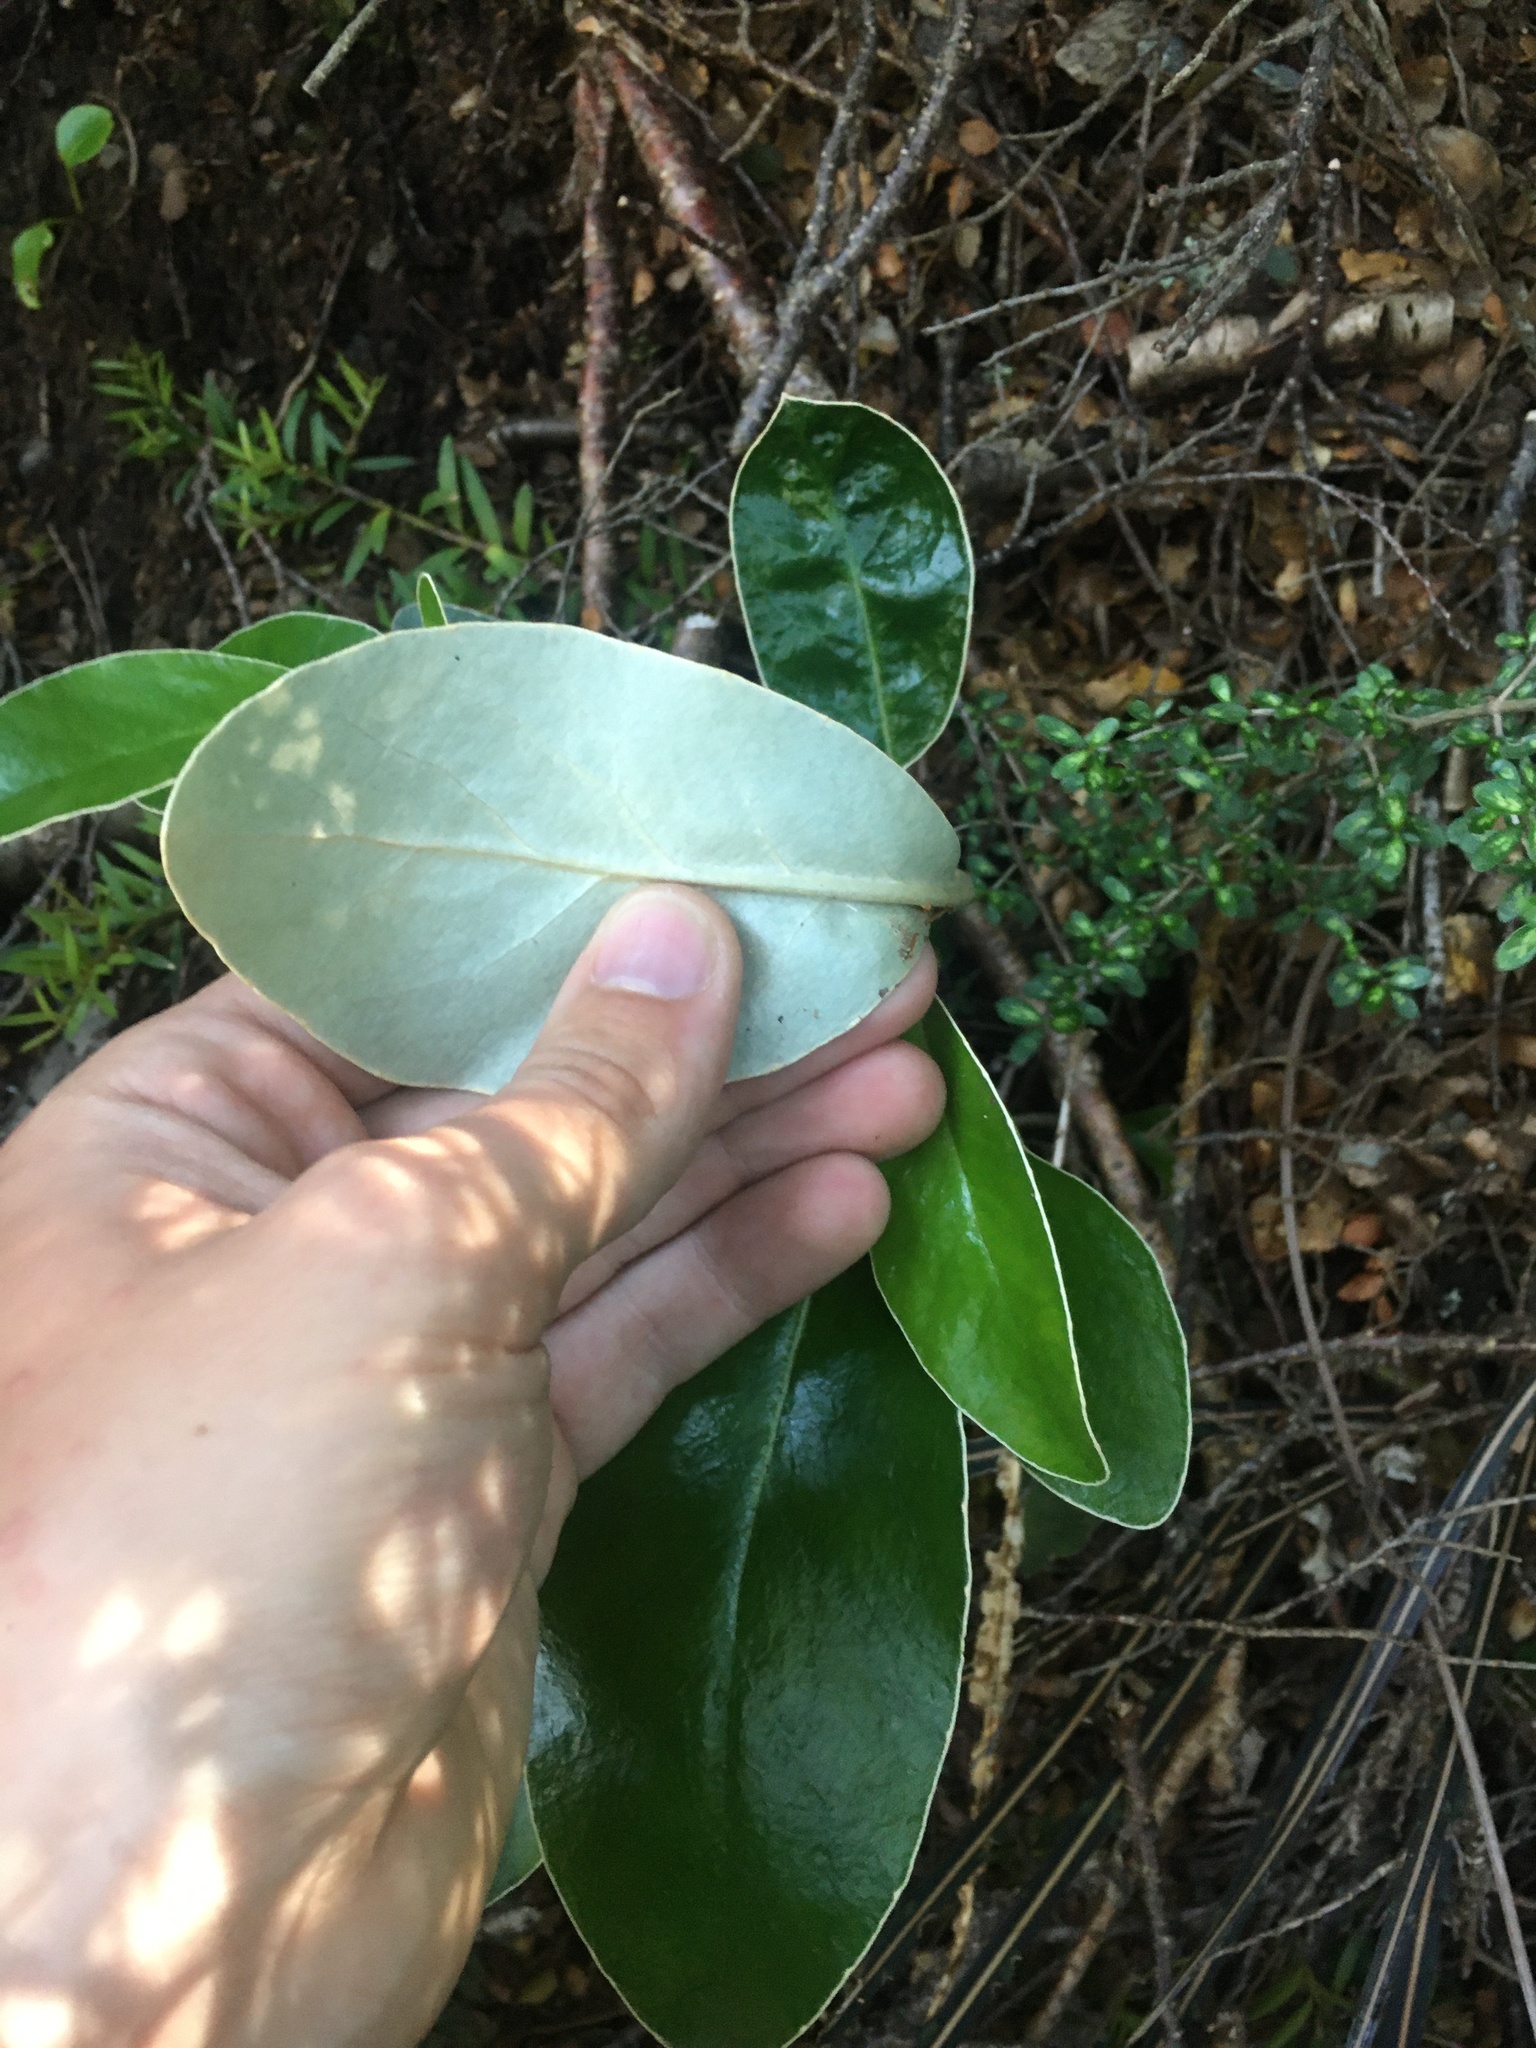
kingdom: Plantae
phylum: Tracheophyta
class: Magnoliopsida
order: Asterales
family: Asteraceae
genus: Brachyglottis
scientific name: Brachyglottis buchananii
